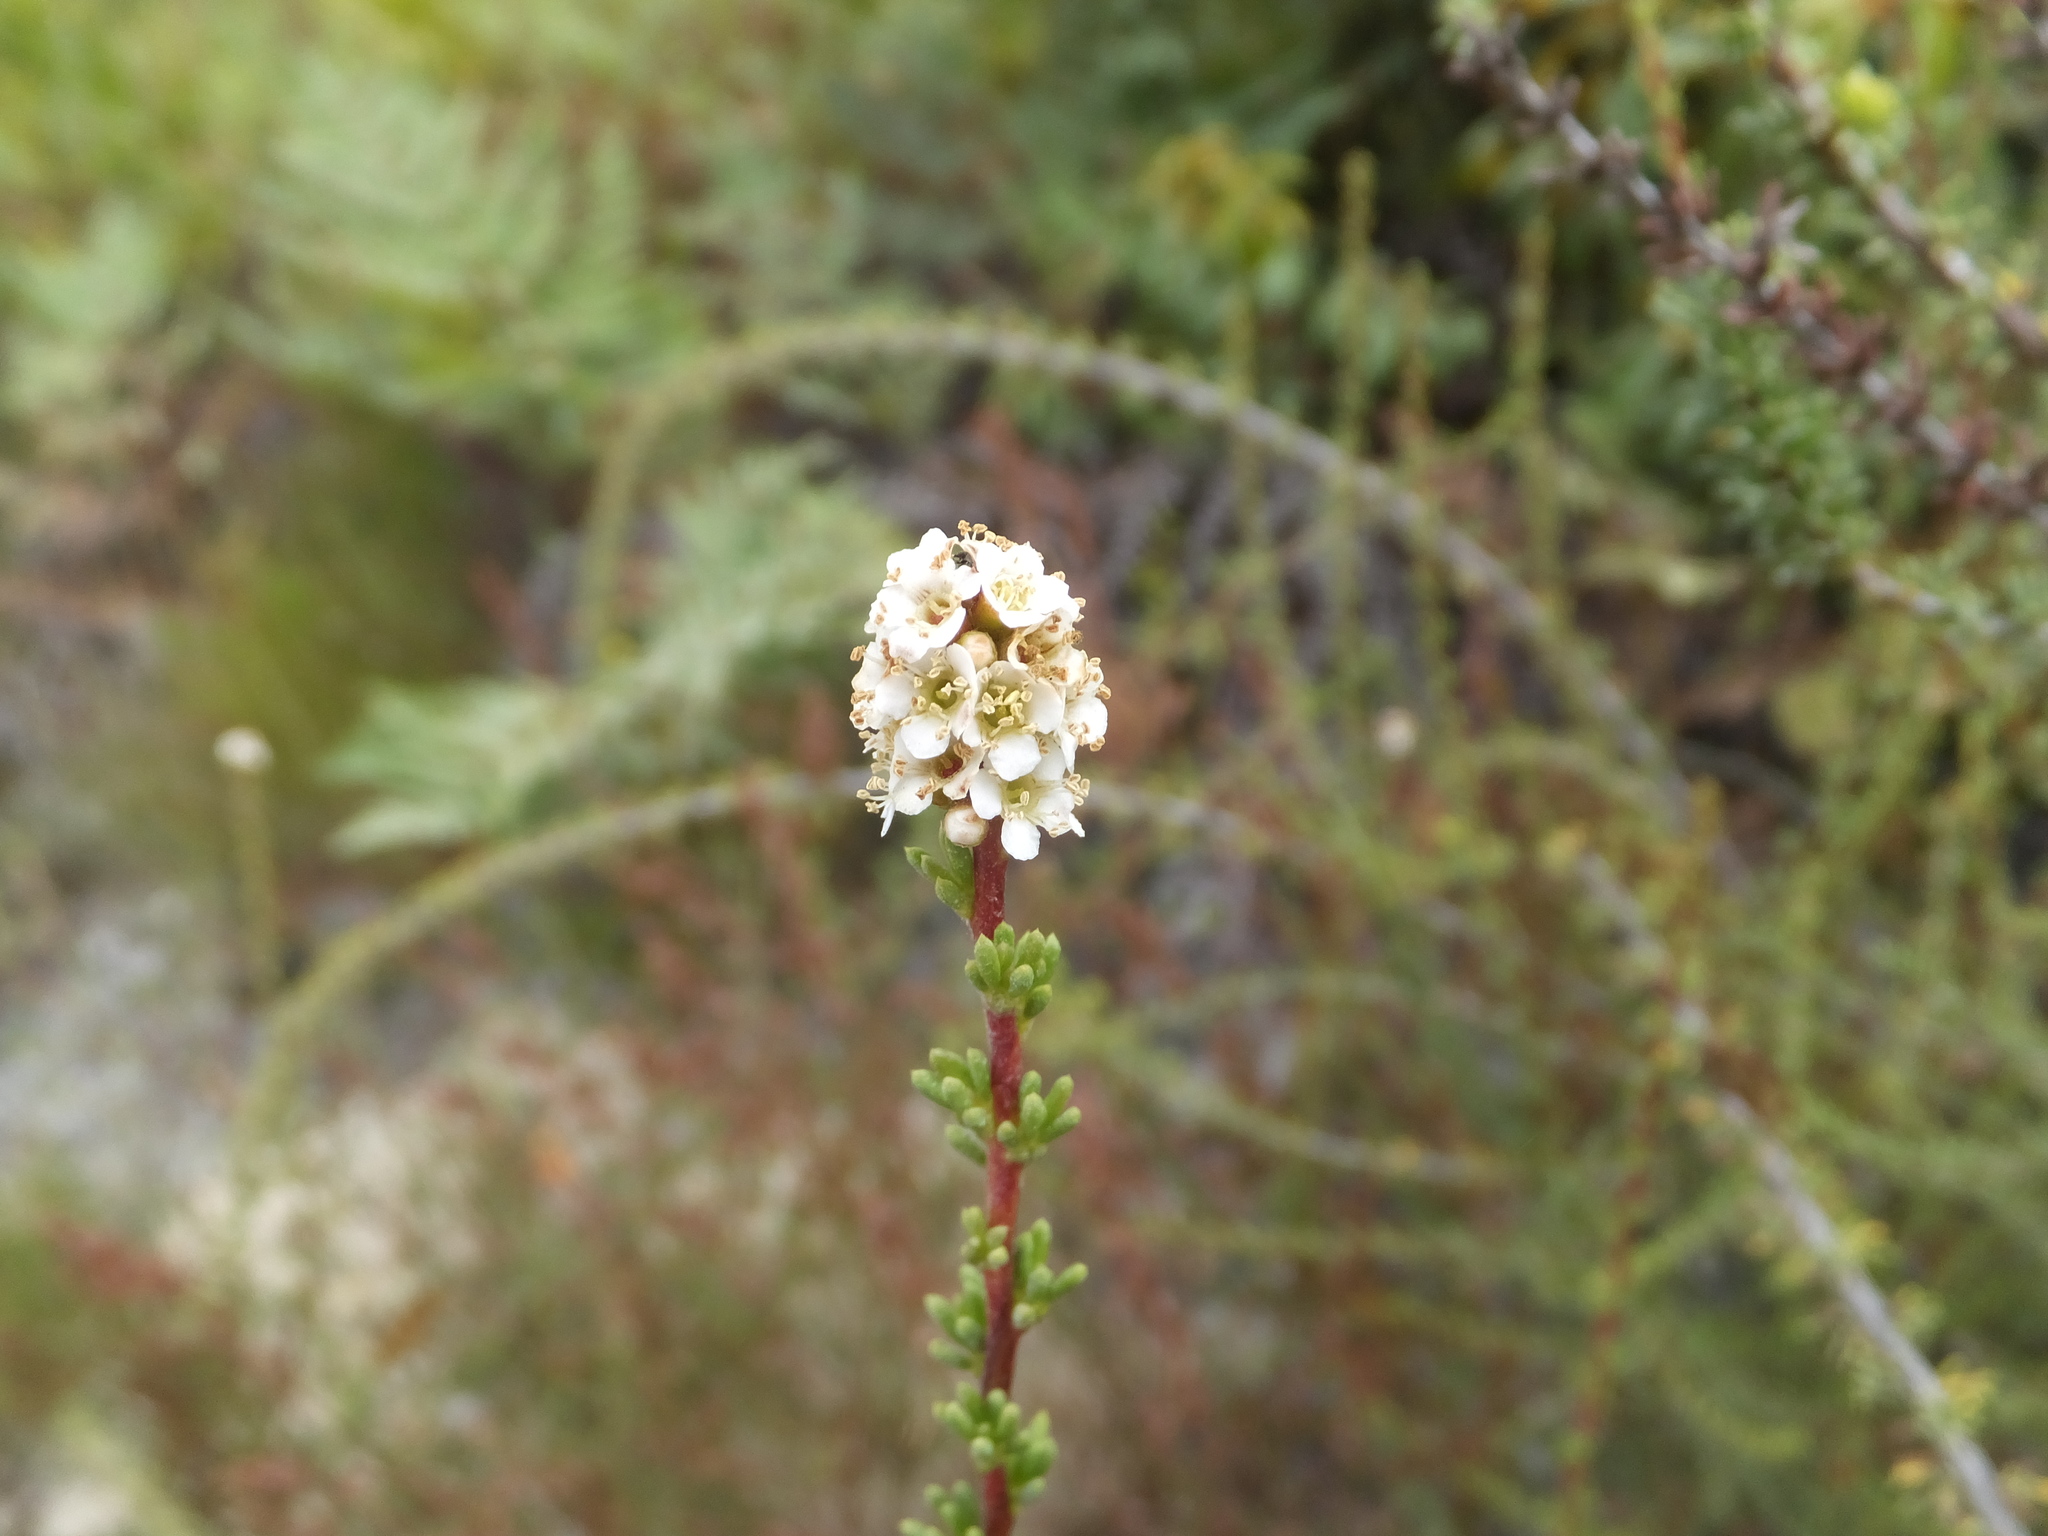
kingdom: Plantae
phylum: Tracheophyta
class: Magnoliopsida
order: Rosales
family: Rosaceae
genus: Adenostoma
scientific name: Adenostoma fasciculatum
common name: Chamise
